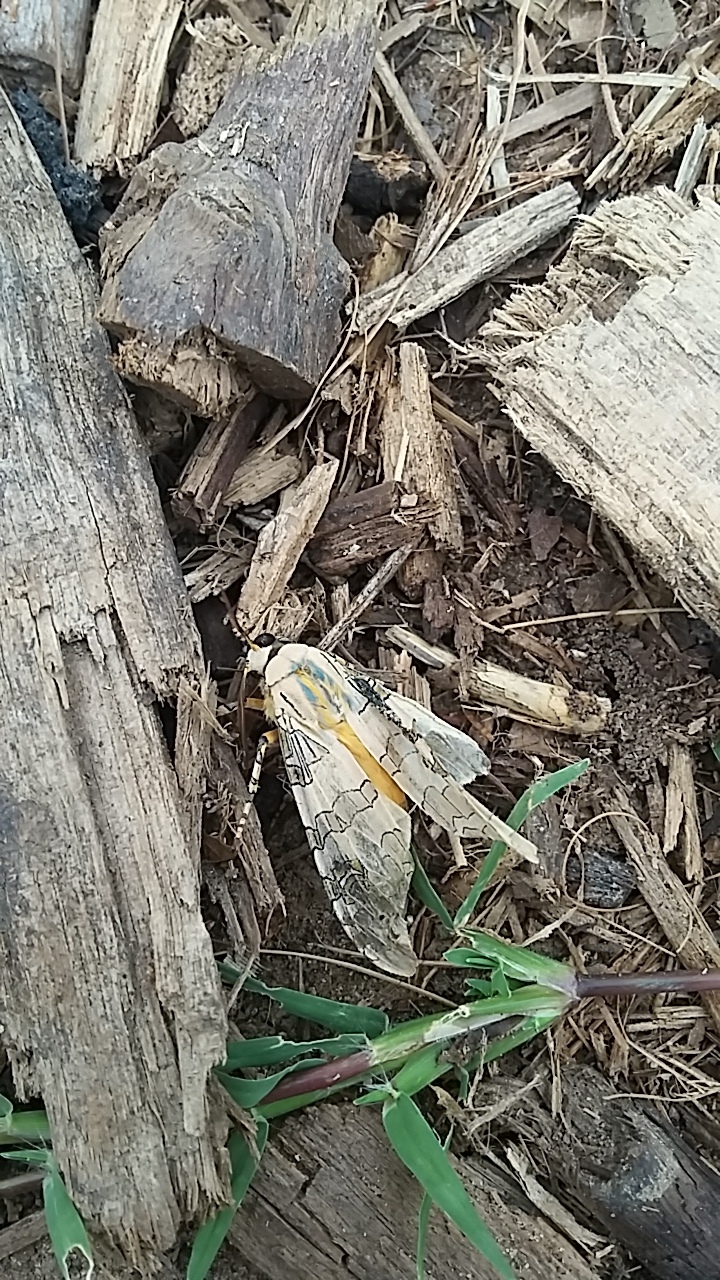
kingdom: Animalia
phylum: Arthropoda
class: Insecta
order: Lepidoptera
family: Erebidae
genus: Halysidota
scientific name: Halysidota schausi
